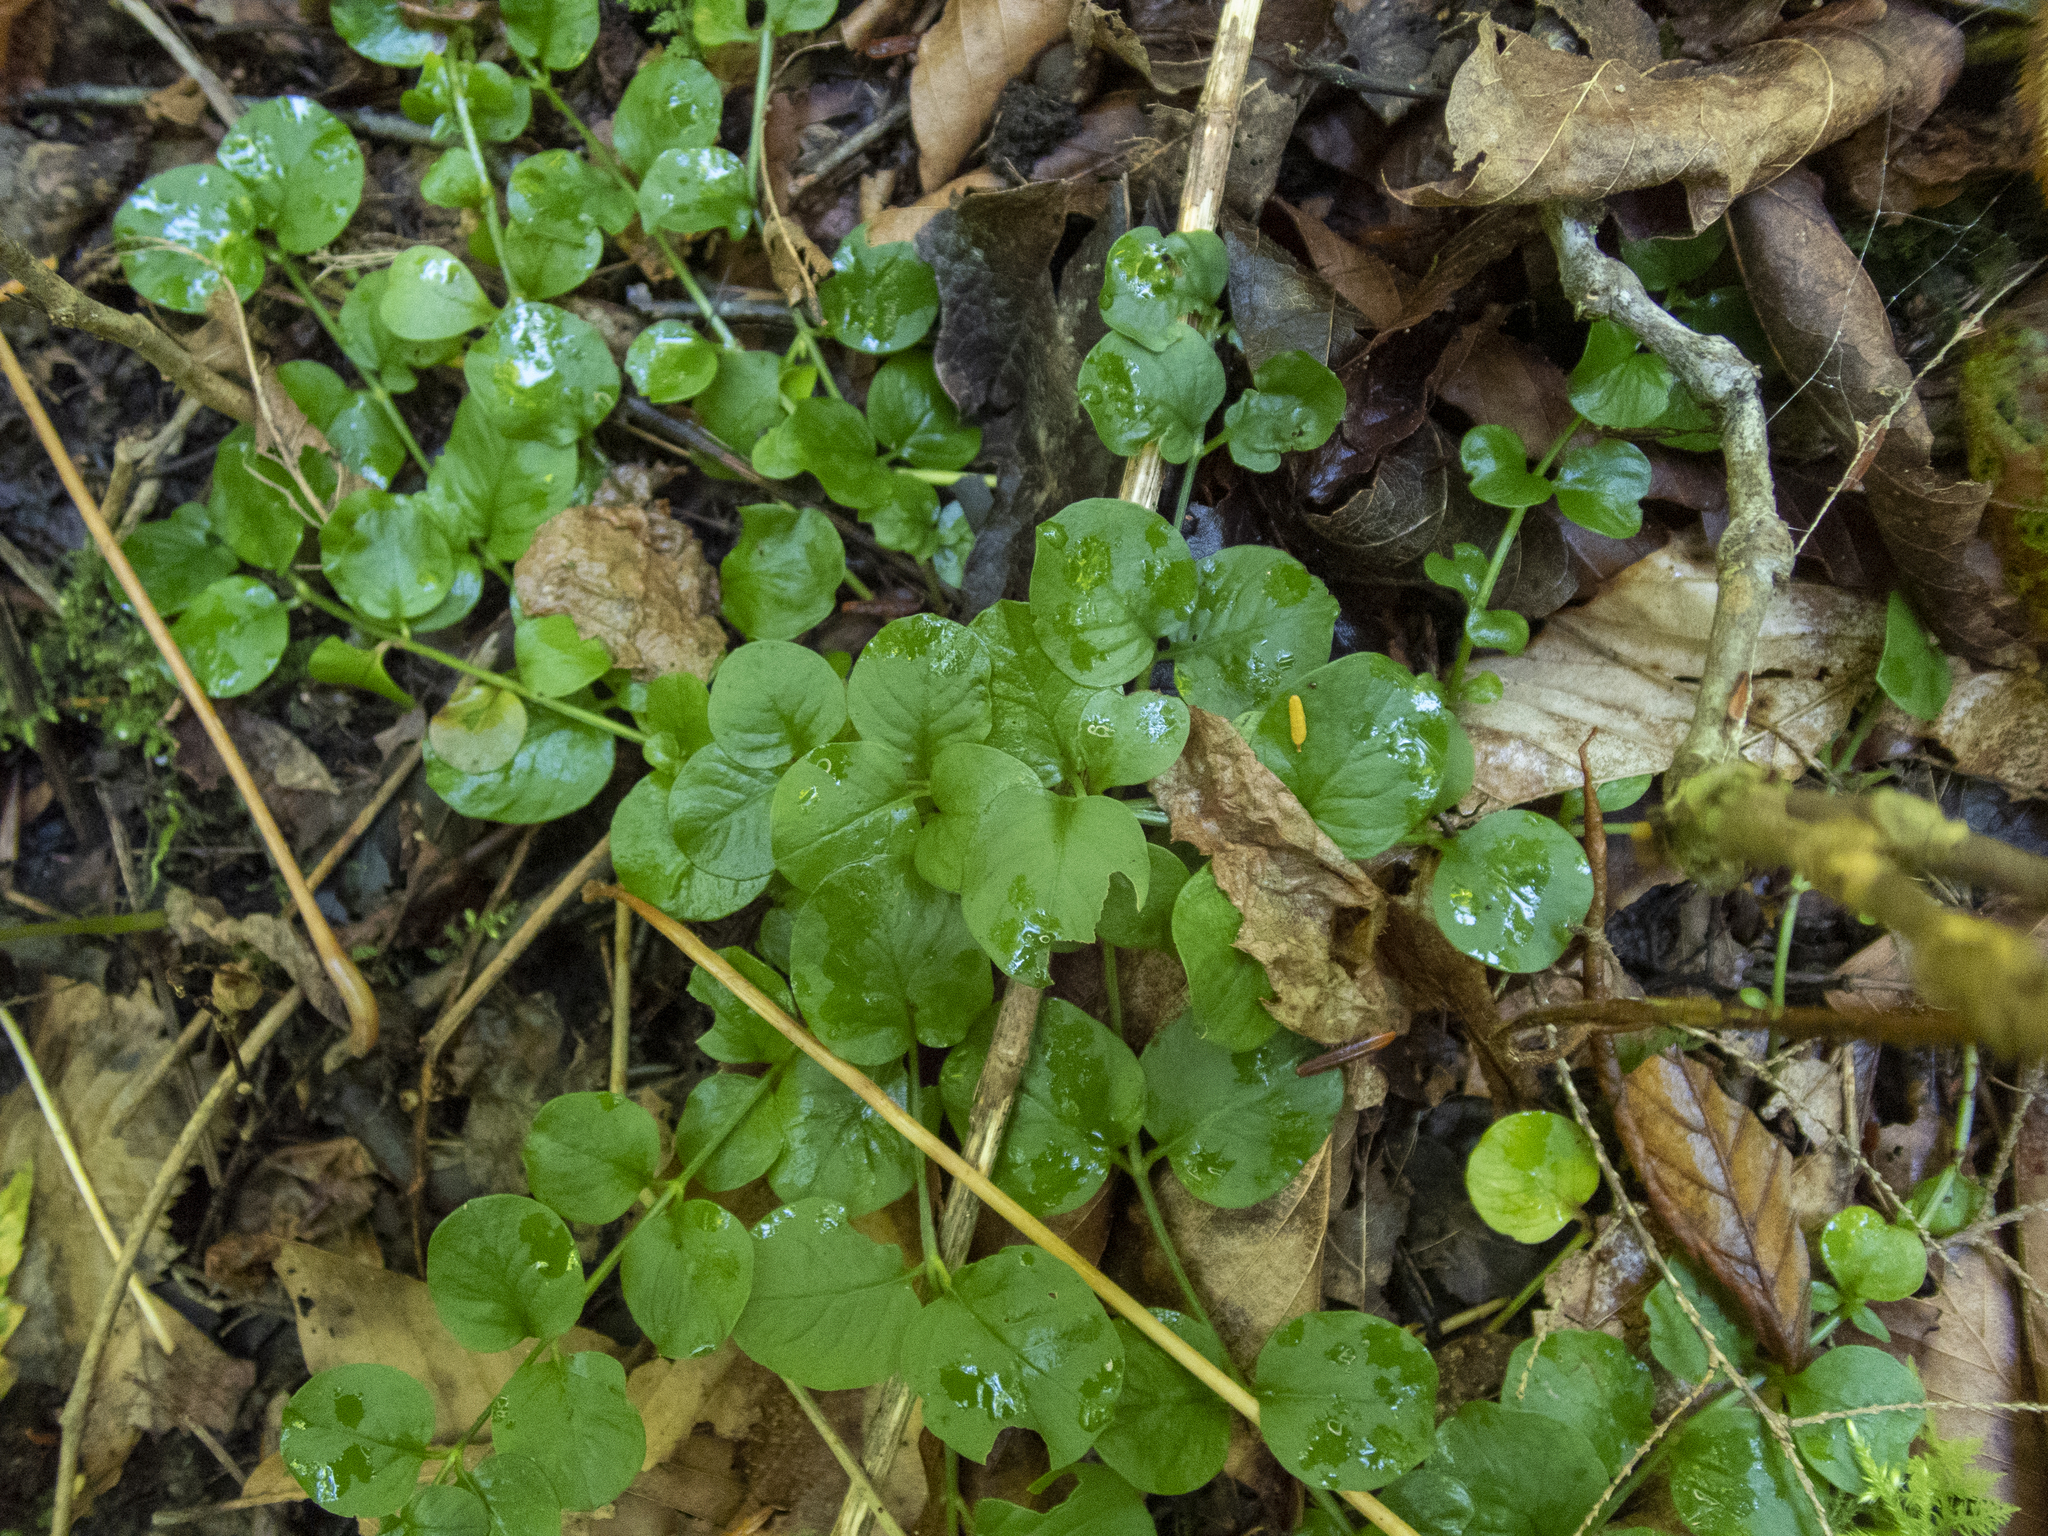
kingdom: Plantae
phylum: Tracheophyta
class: Magnoliopsida
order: Ericales
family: Primulaceae
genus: Lysimachia
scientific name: Lysimachia nummularia
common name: Moneywort
